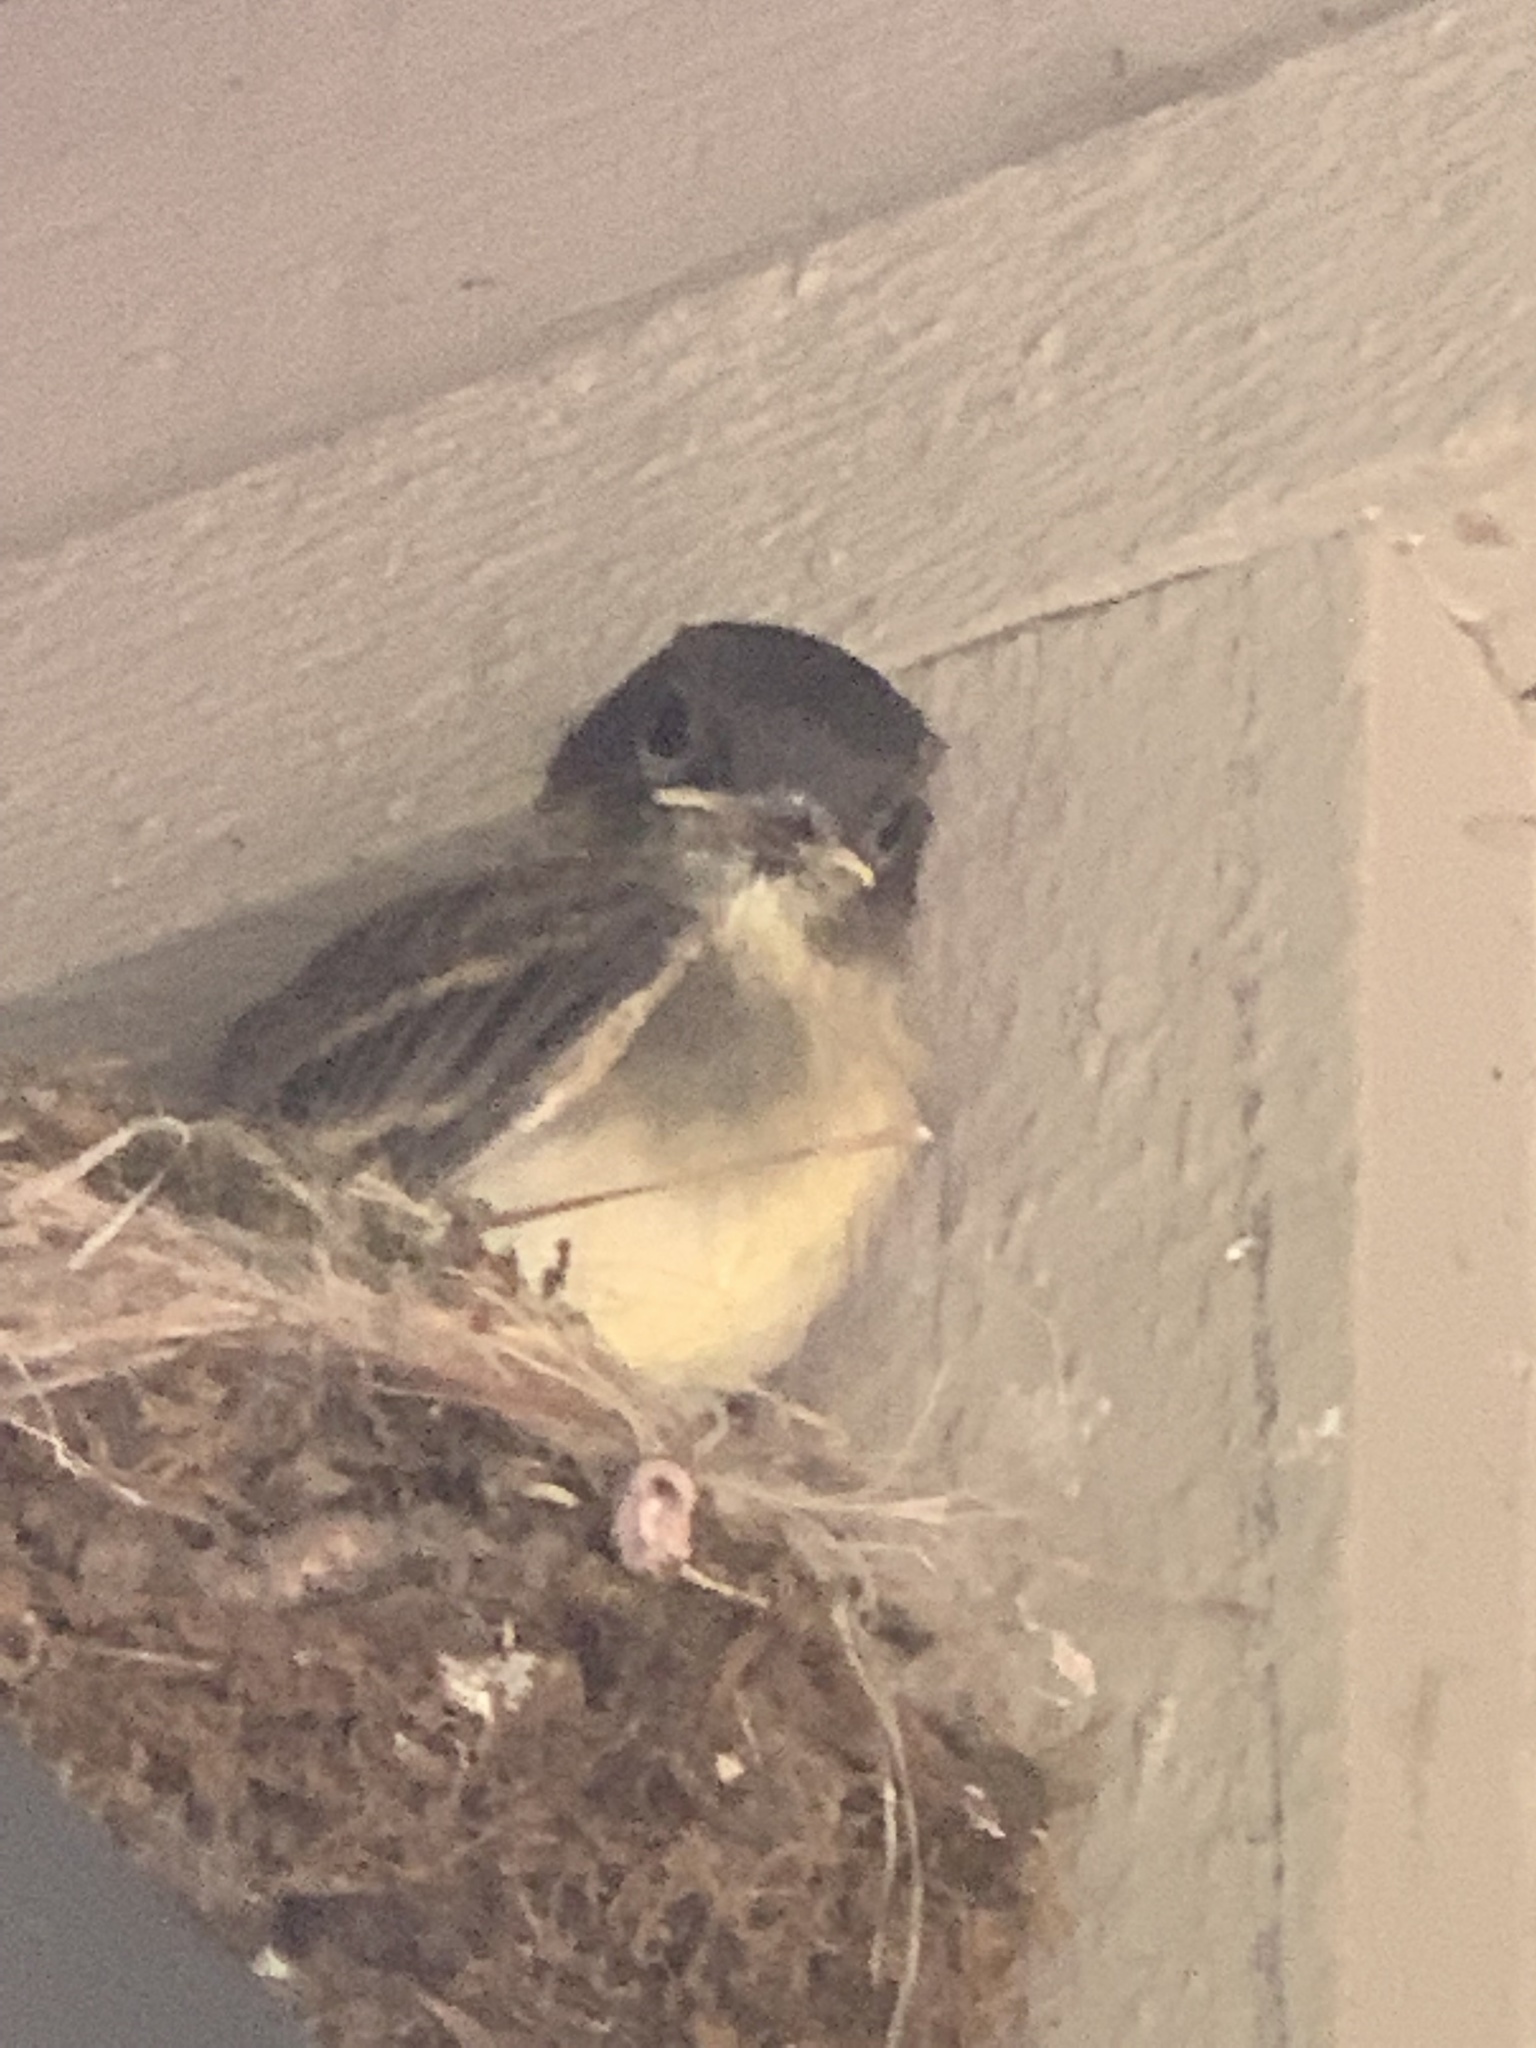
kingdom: Animalia
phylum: Chordata
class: Aves
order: Passeriformes
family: Tyrannidae
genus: Sayornis
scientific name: Sayornis phoebe
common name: Eastern phoebe
